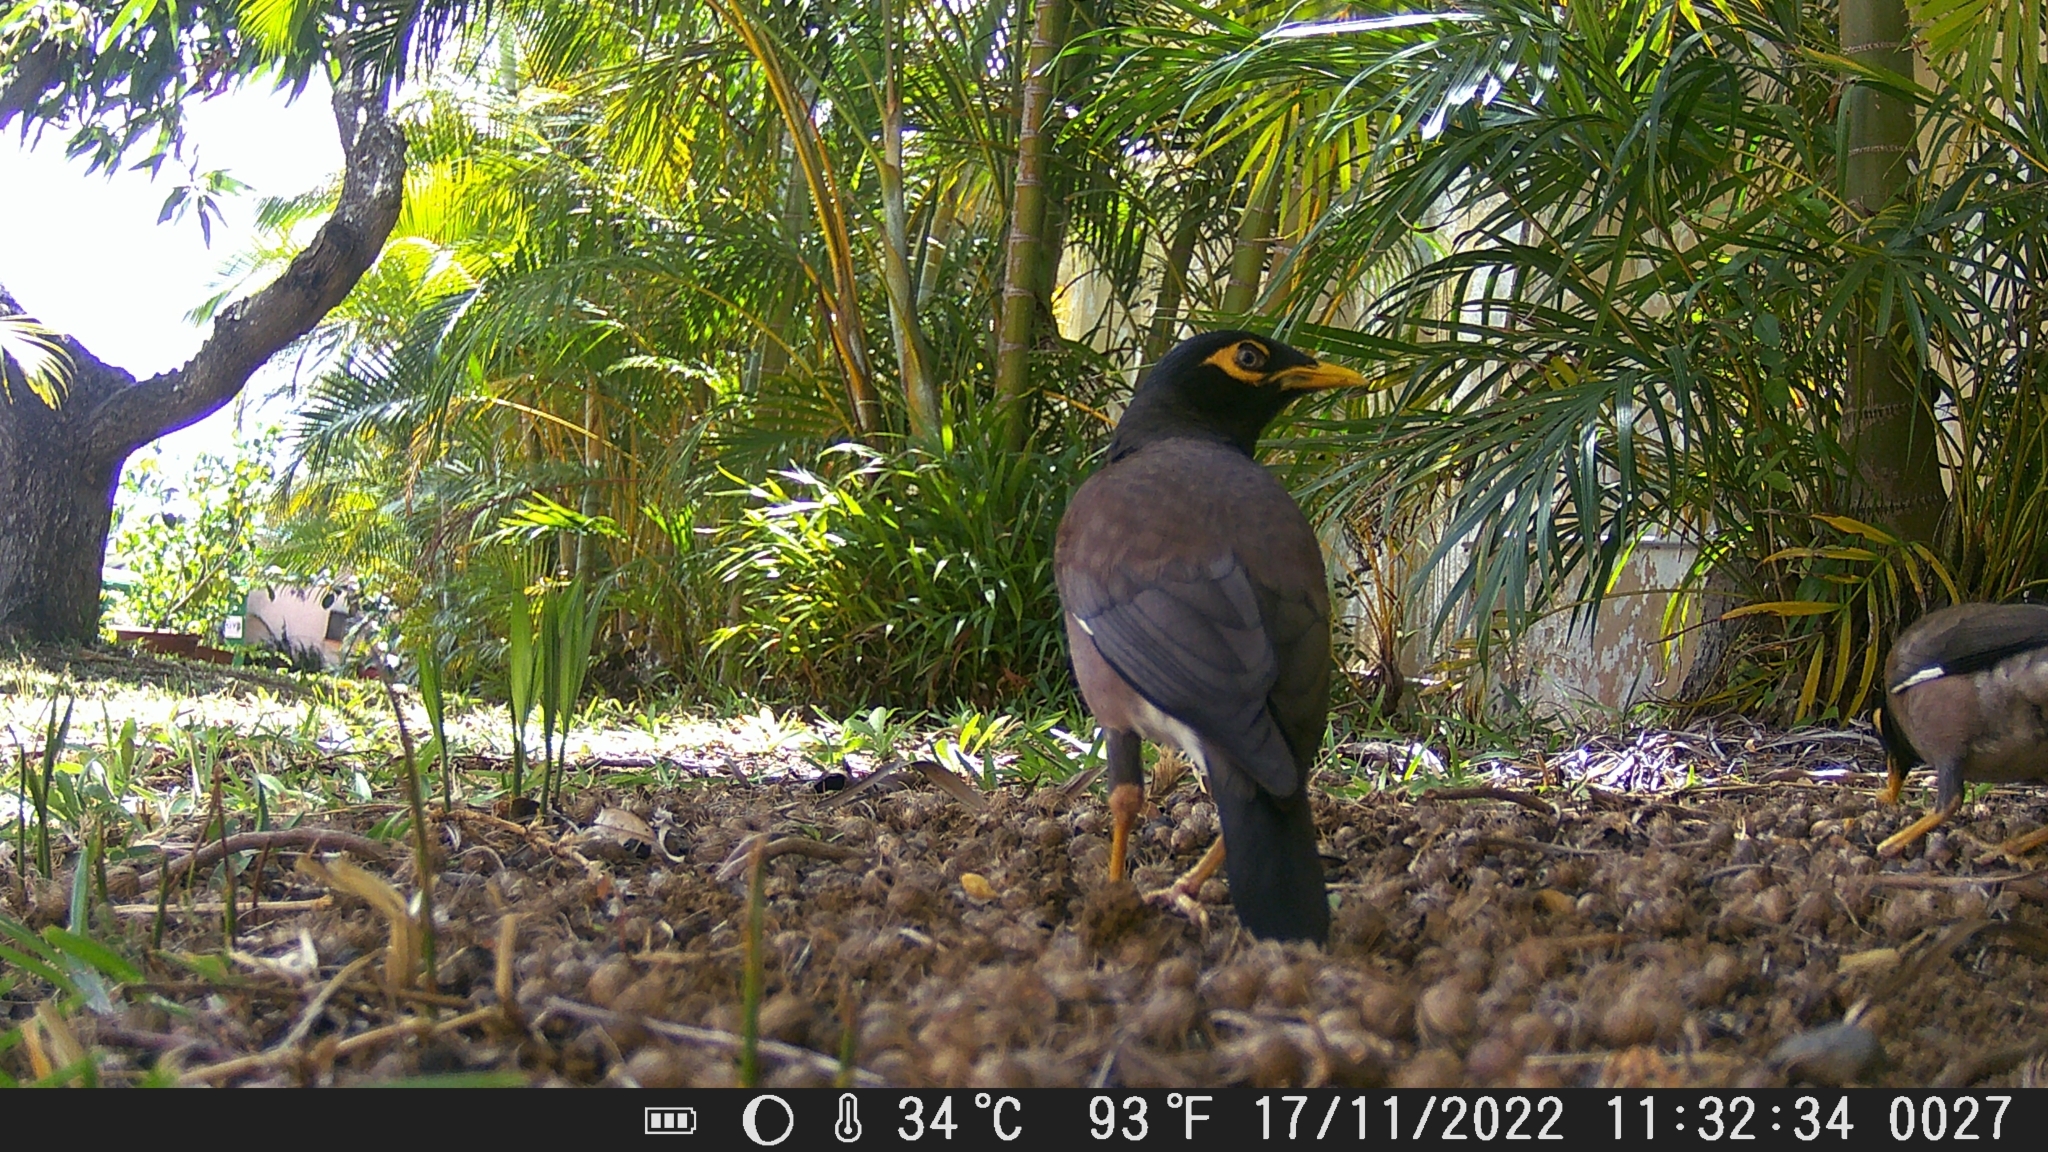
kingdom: Animalia
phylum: Chordata
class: Aves
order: Passeriformes
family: Sturnidae
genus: Acridotheres
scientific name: Acridotheres tristis
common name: Common myna
